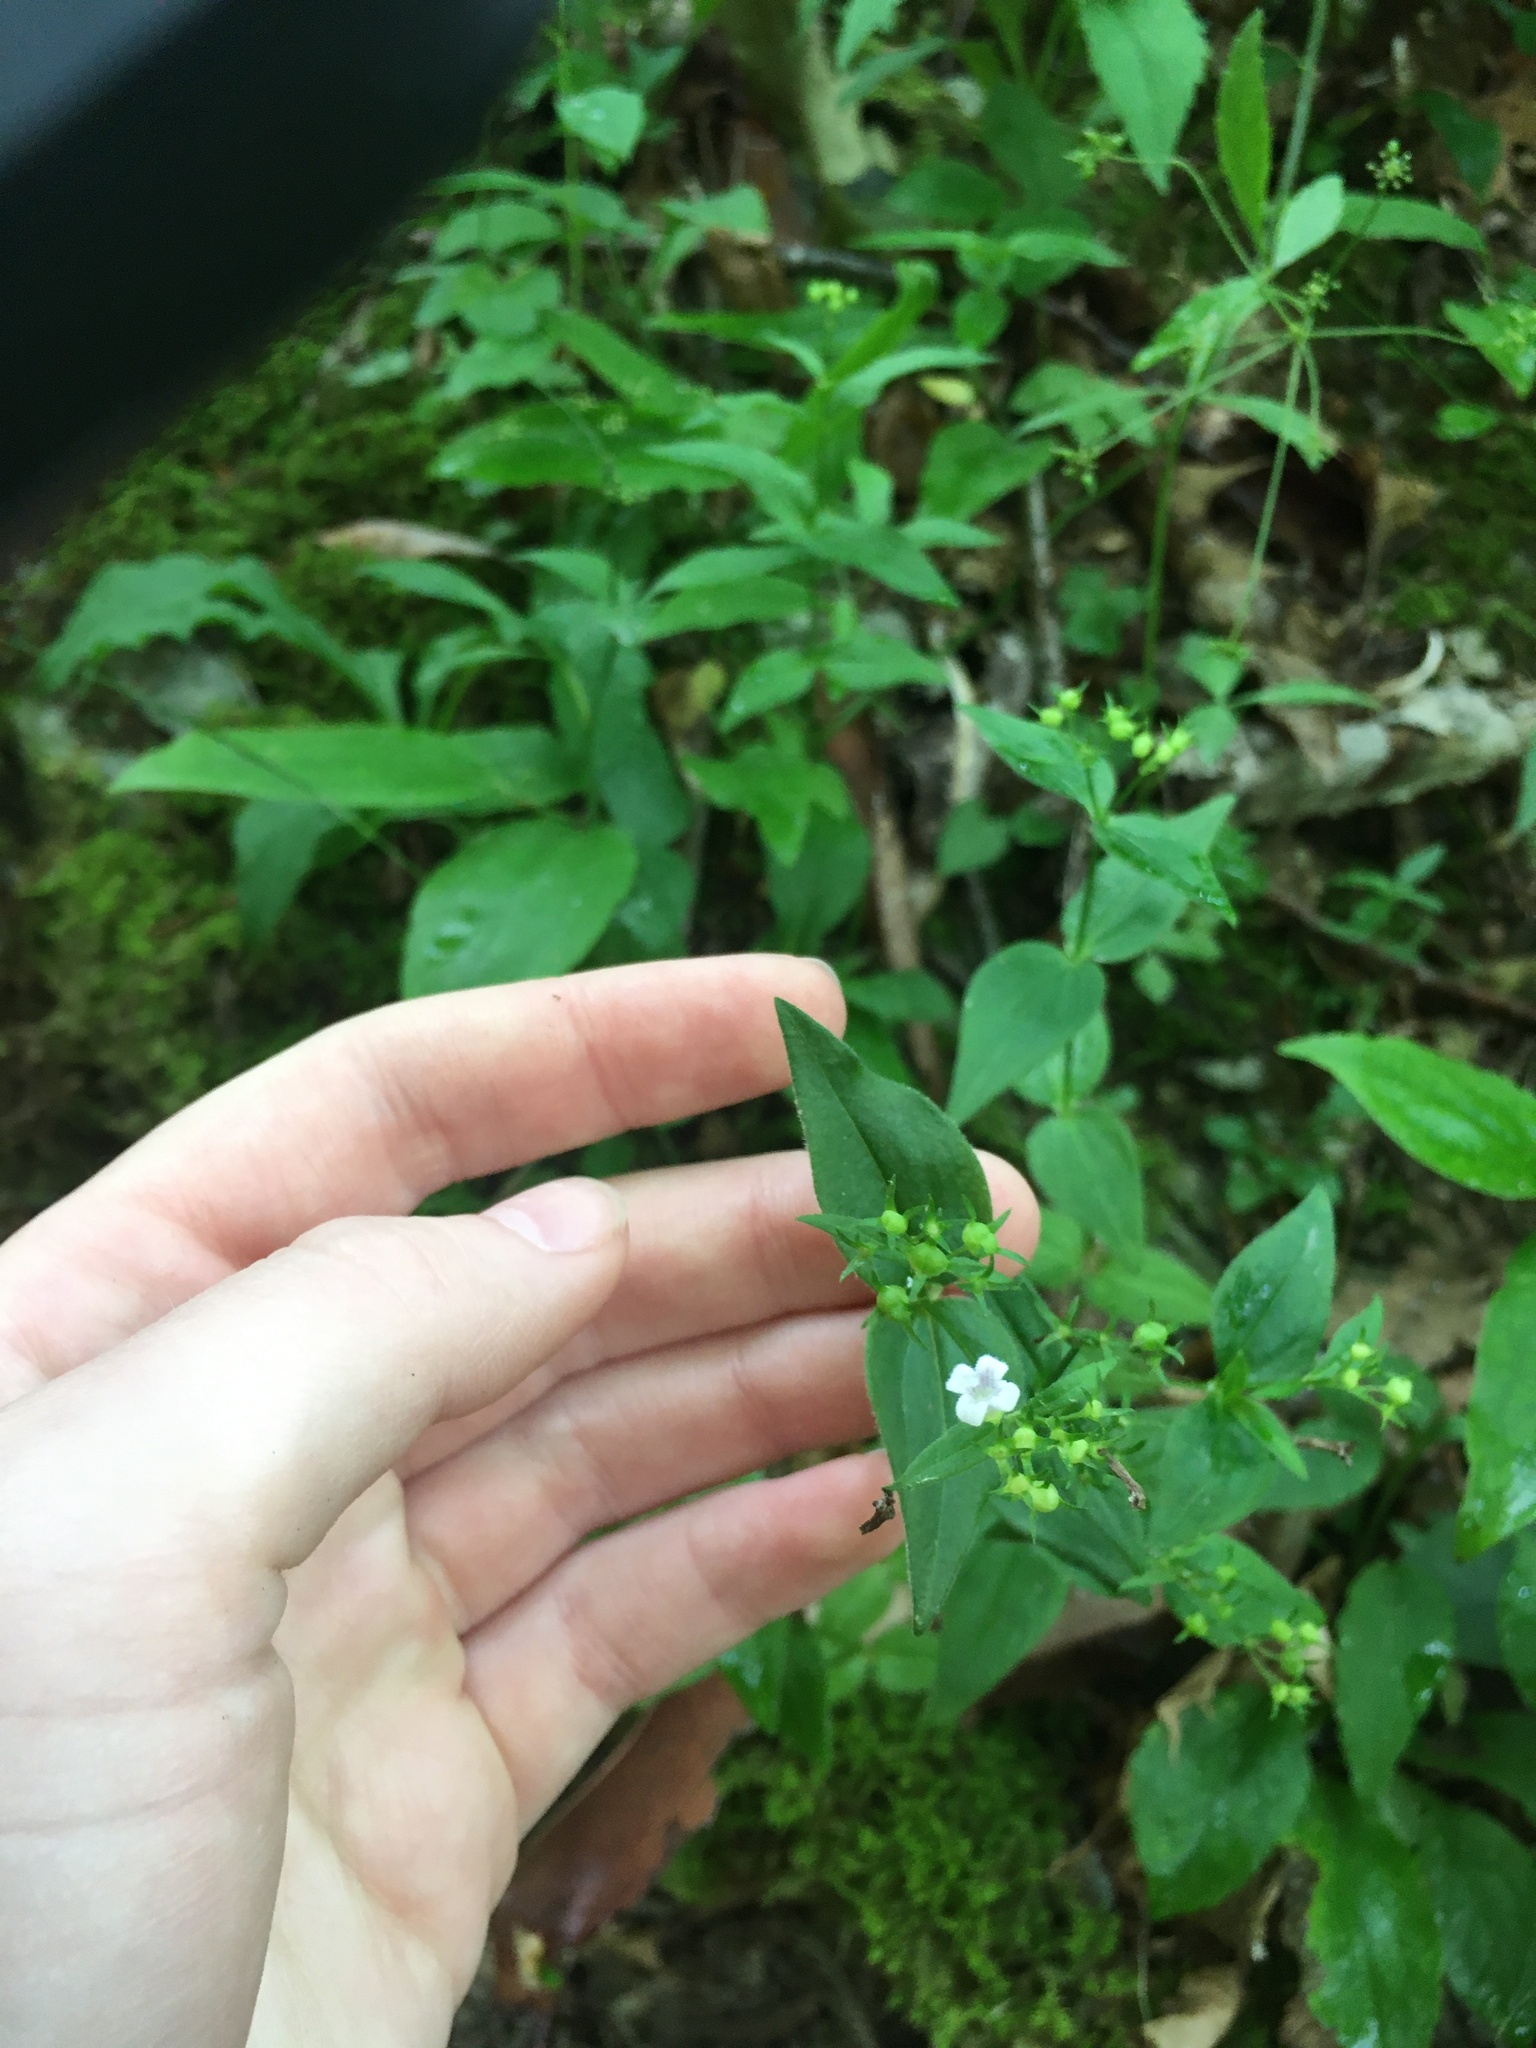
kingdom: Plantae
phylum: Tracheophyta
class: Magnoliopsida
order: Gentianales
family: Rubiaceae
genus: Houstonia
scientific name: Houstonia purpurea
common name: Summer bluet
